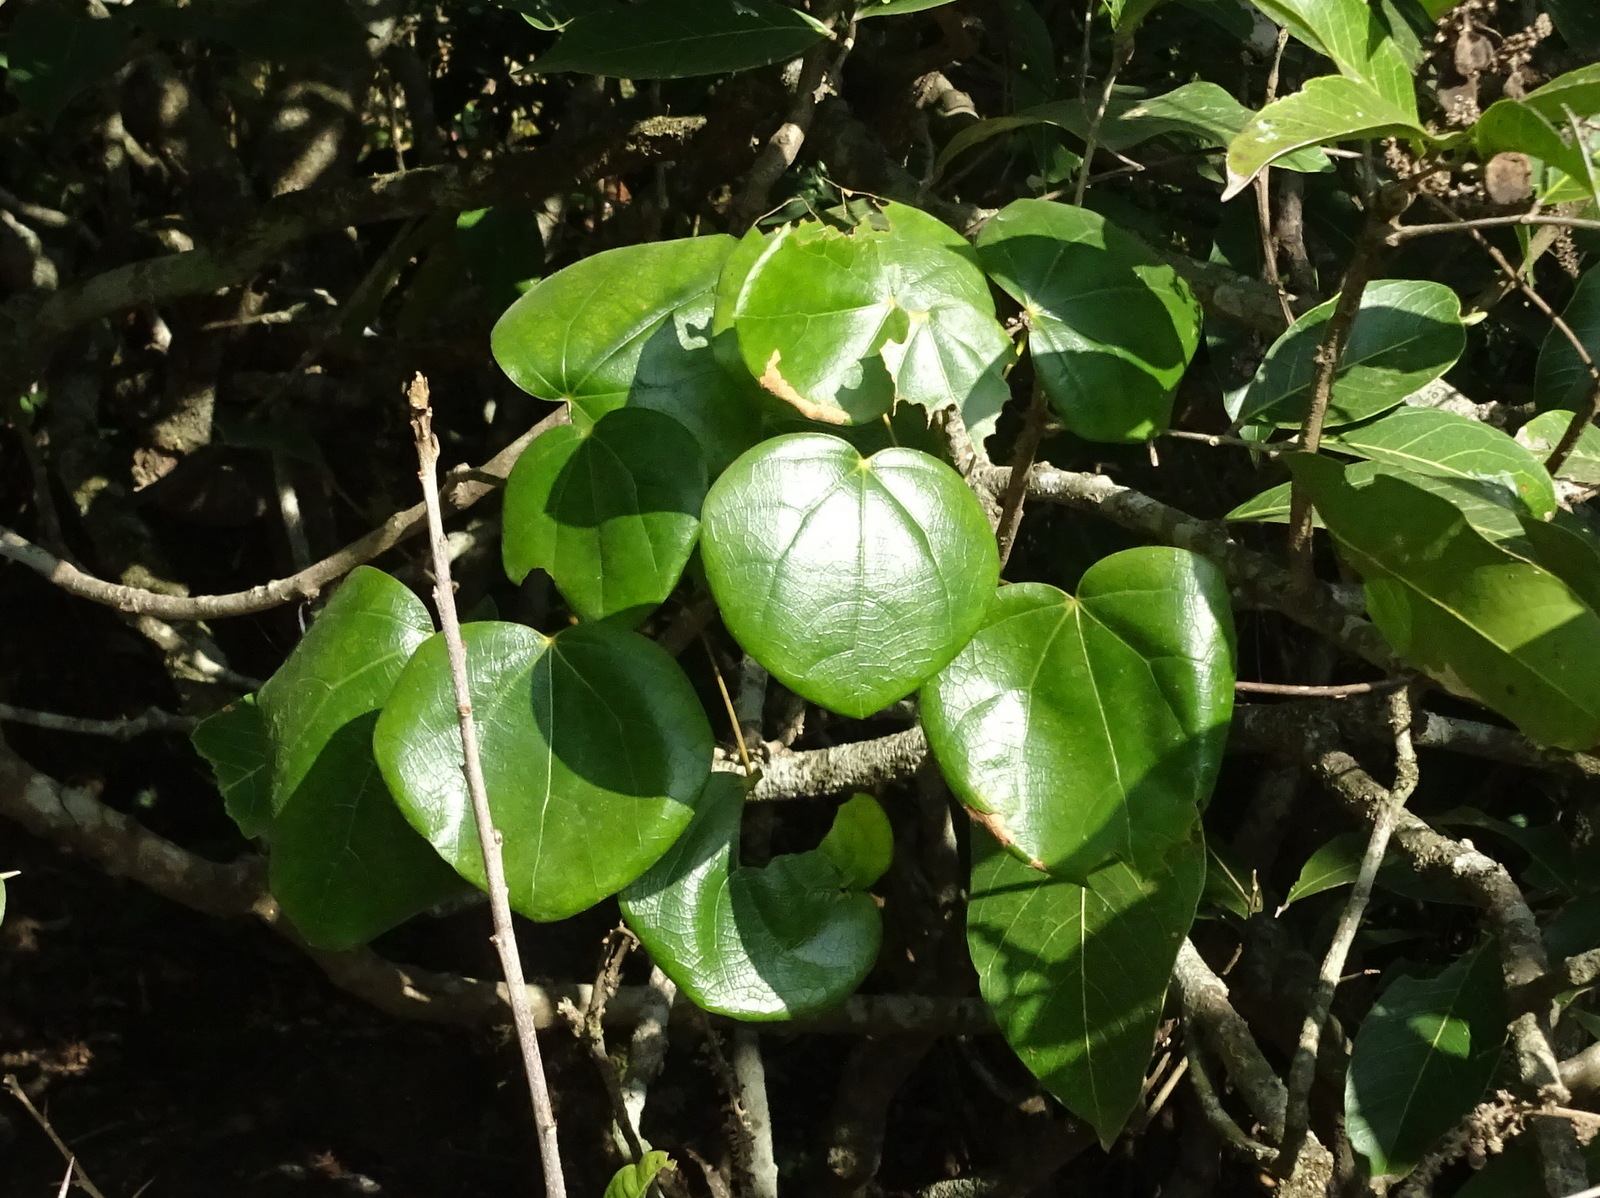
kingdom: Plantae
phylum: Tracheophyta
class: Magnoliopsida
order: Ranunculales
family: Menispermaceae
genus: Diploclisia
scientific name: Diploclisia glaucescens
